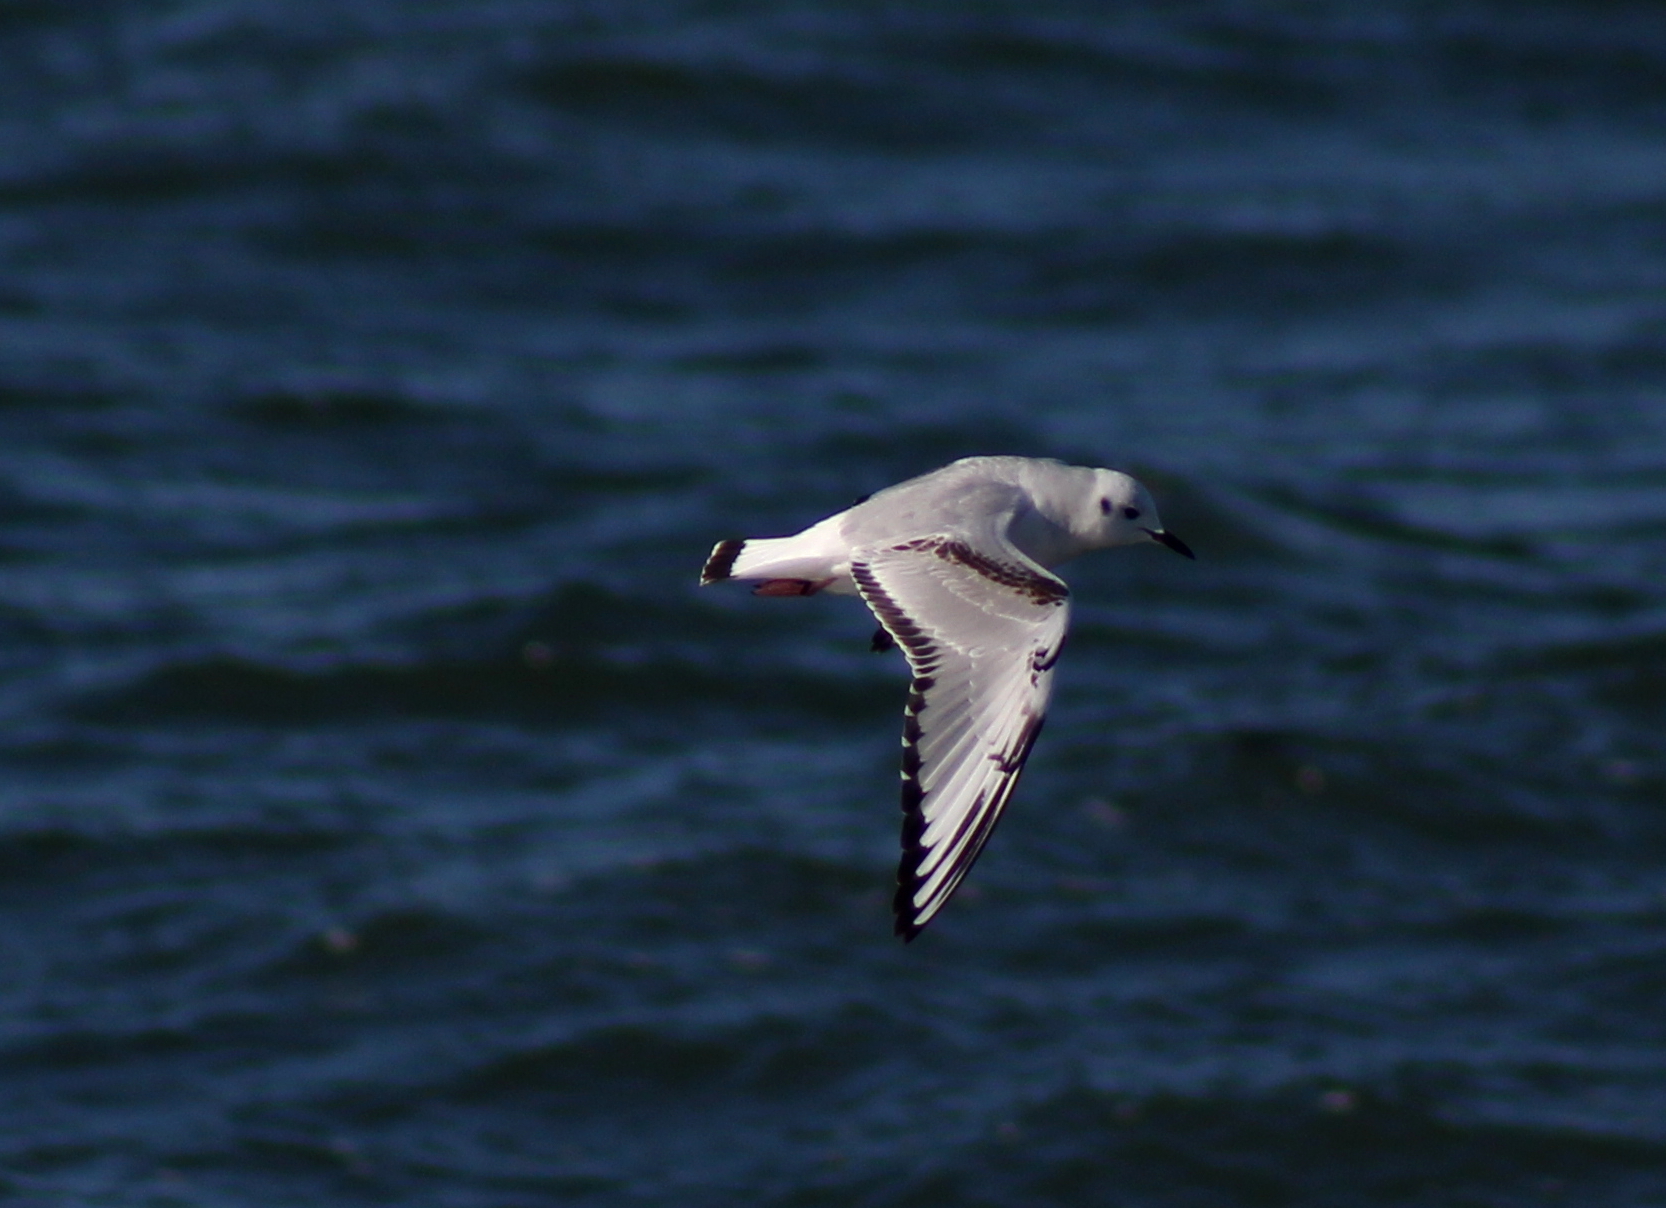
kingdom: Animalia
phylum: Chordata
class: Aves
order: Charadriiformes
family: Laridae
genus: Chroicocephalus
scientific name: Chroicocephalus philadelphia
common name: Bonaparte's gull
